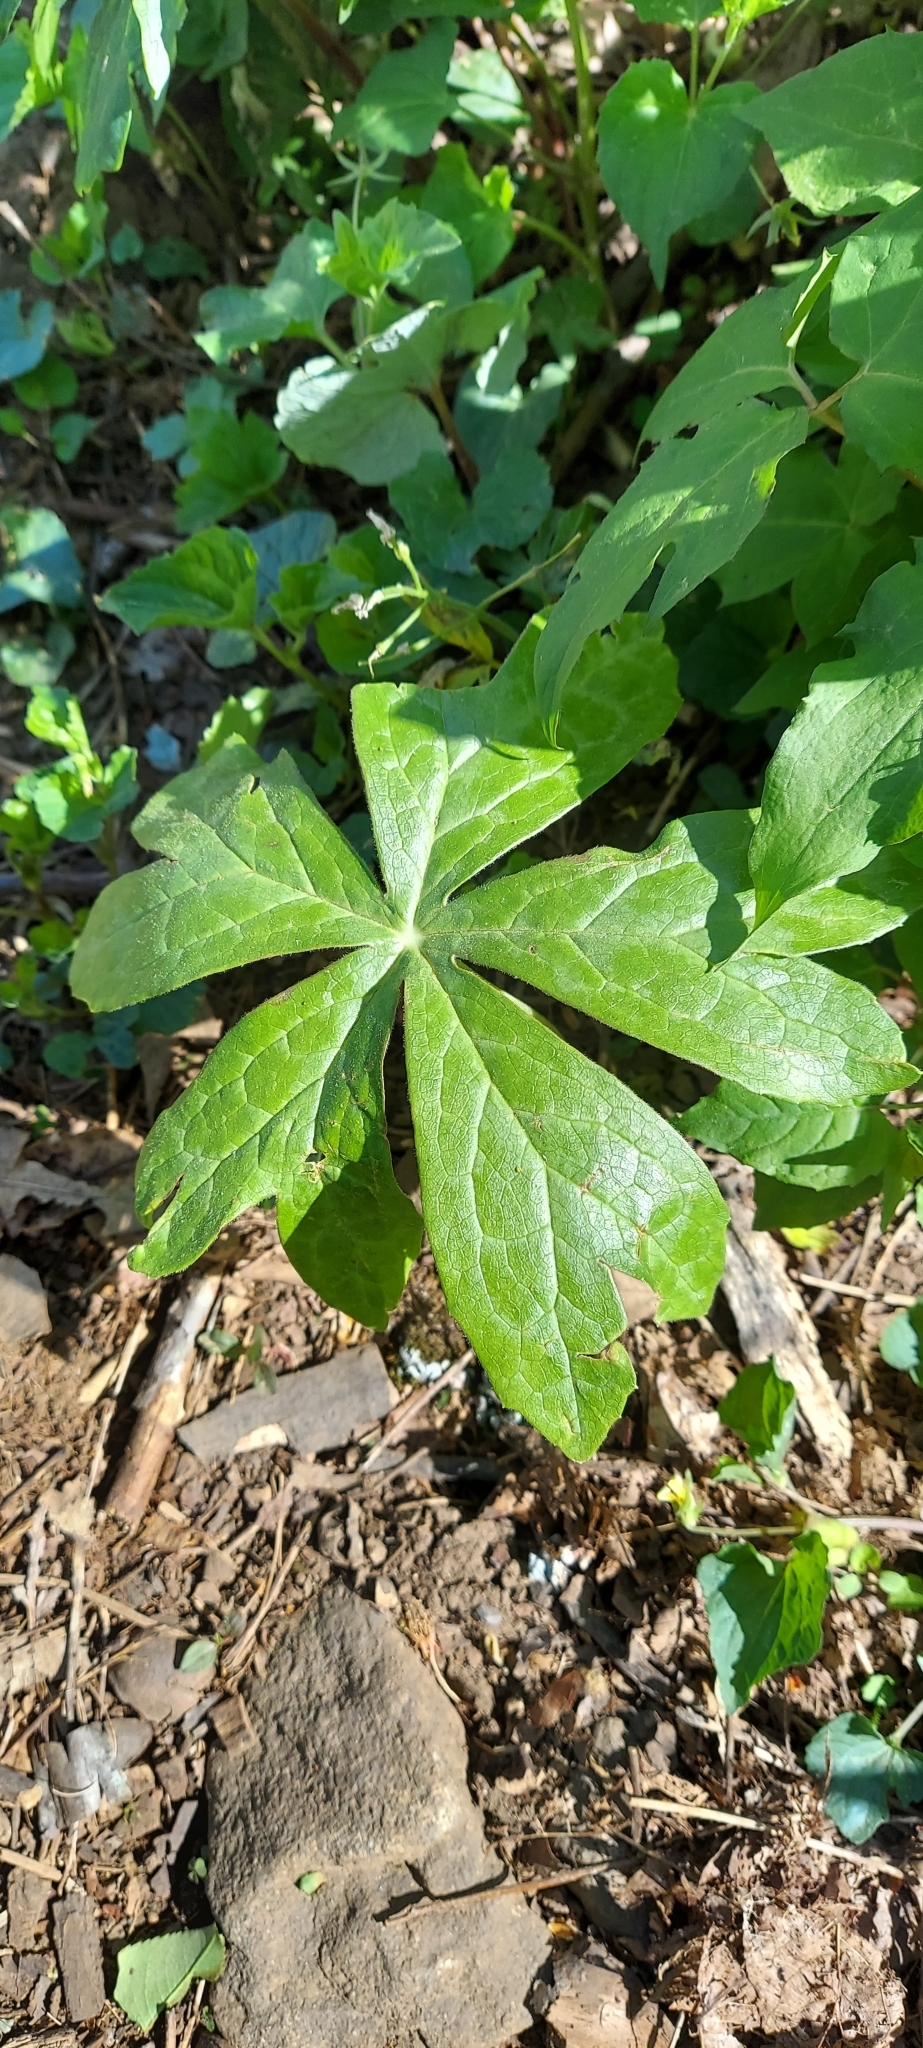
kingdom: Plantae
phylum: Tracheophyta
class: Magnoliopsida
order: Ranunculales
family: Berberidaceae
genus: Podophyllum
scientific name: Podophyllum peltatum
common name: Wild mandrake
